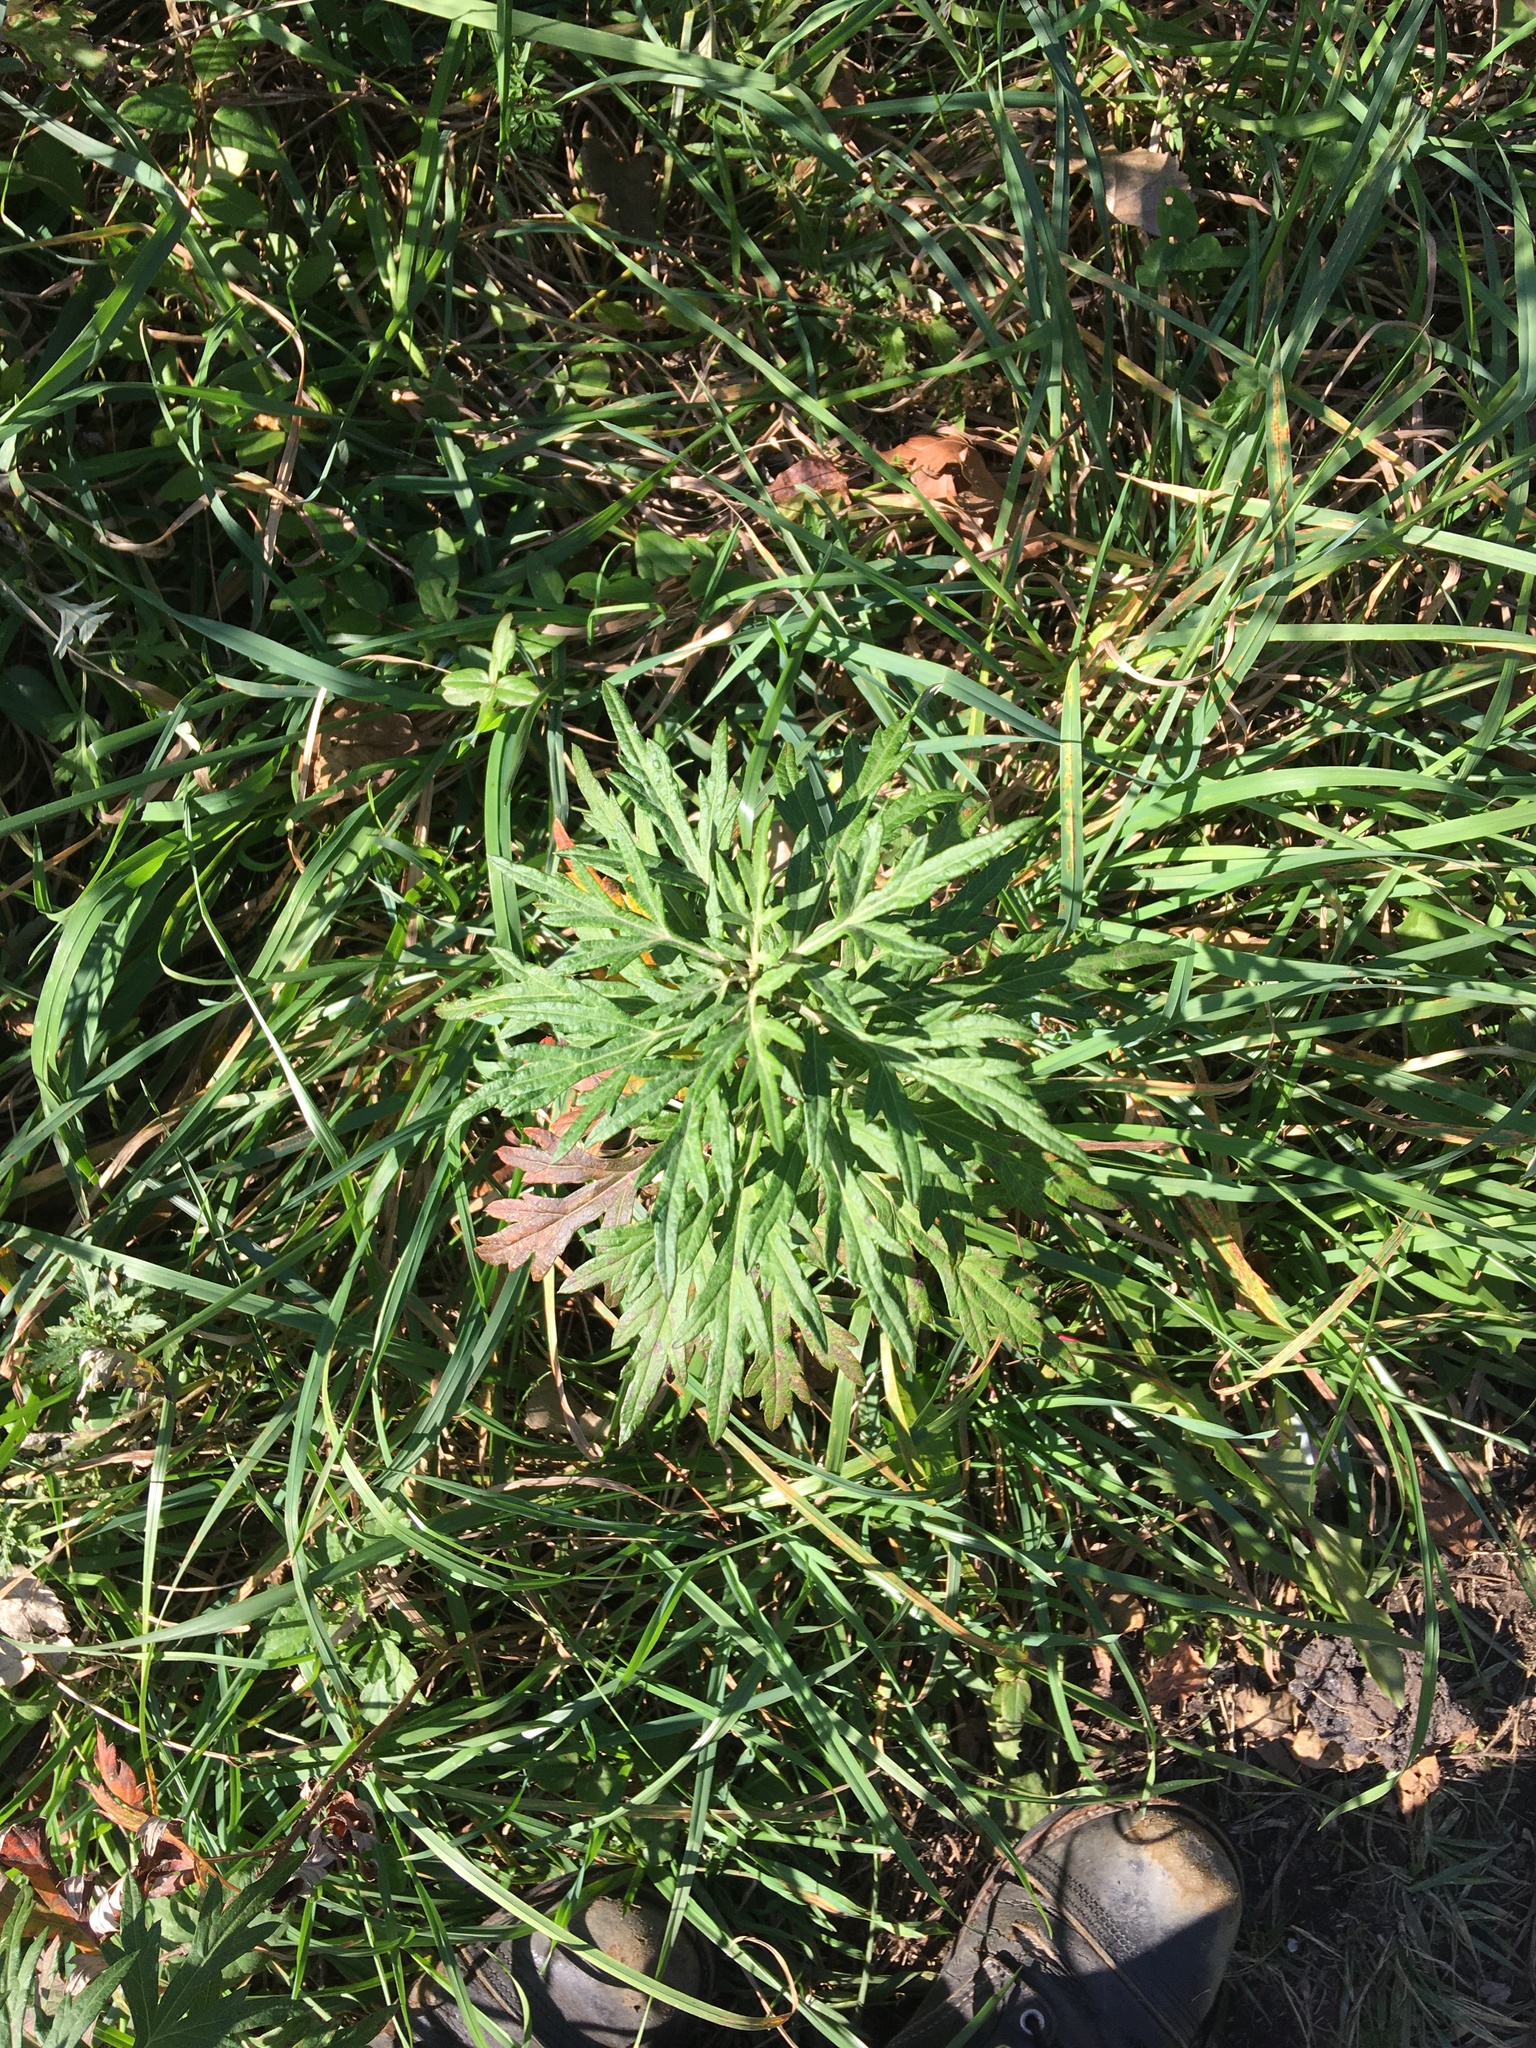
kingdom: Plantae
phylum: Tracheophyta
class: Magnoliopsida
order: Asterales
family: Asteraceae
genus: Artemisia
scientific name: Artemisia vulgaris
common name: Mugwort
